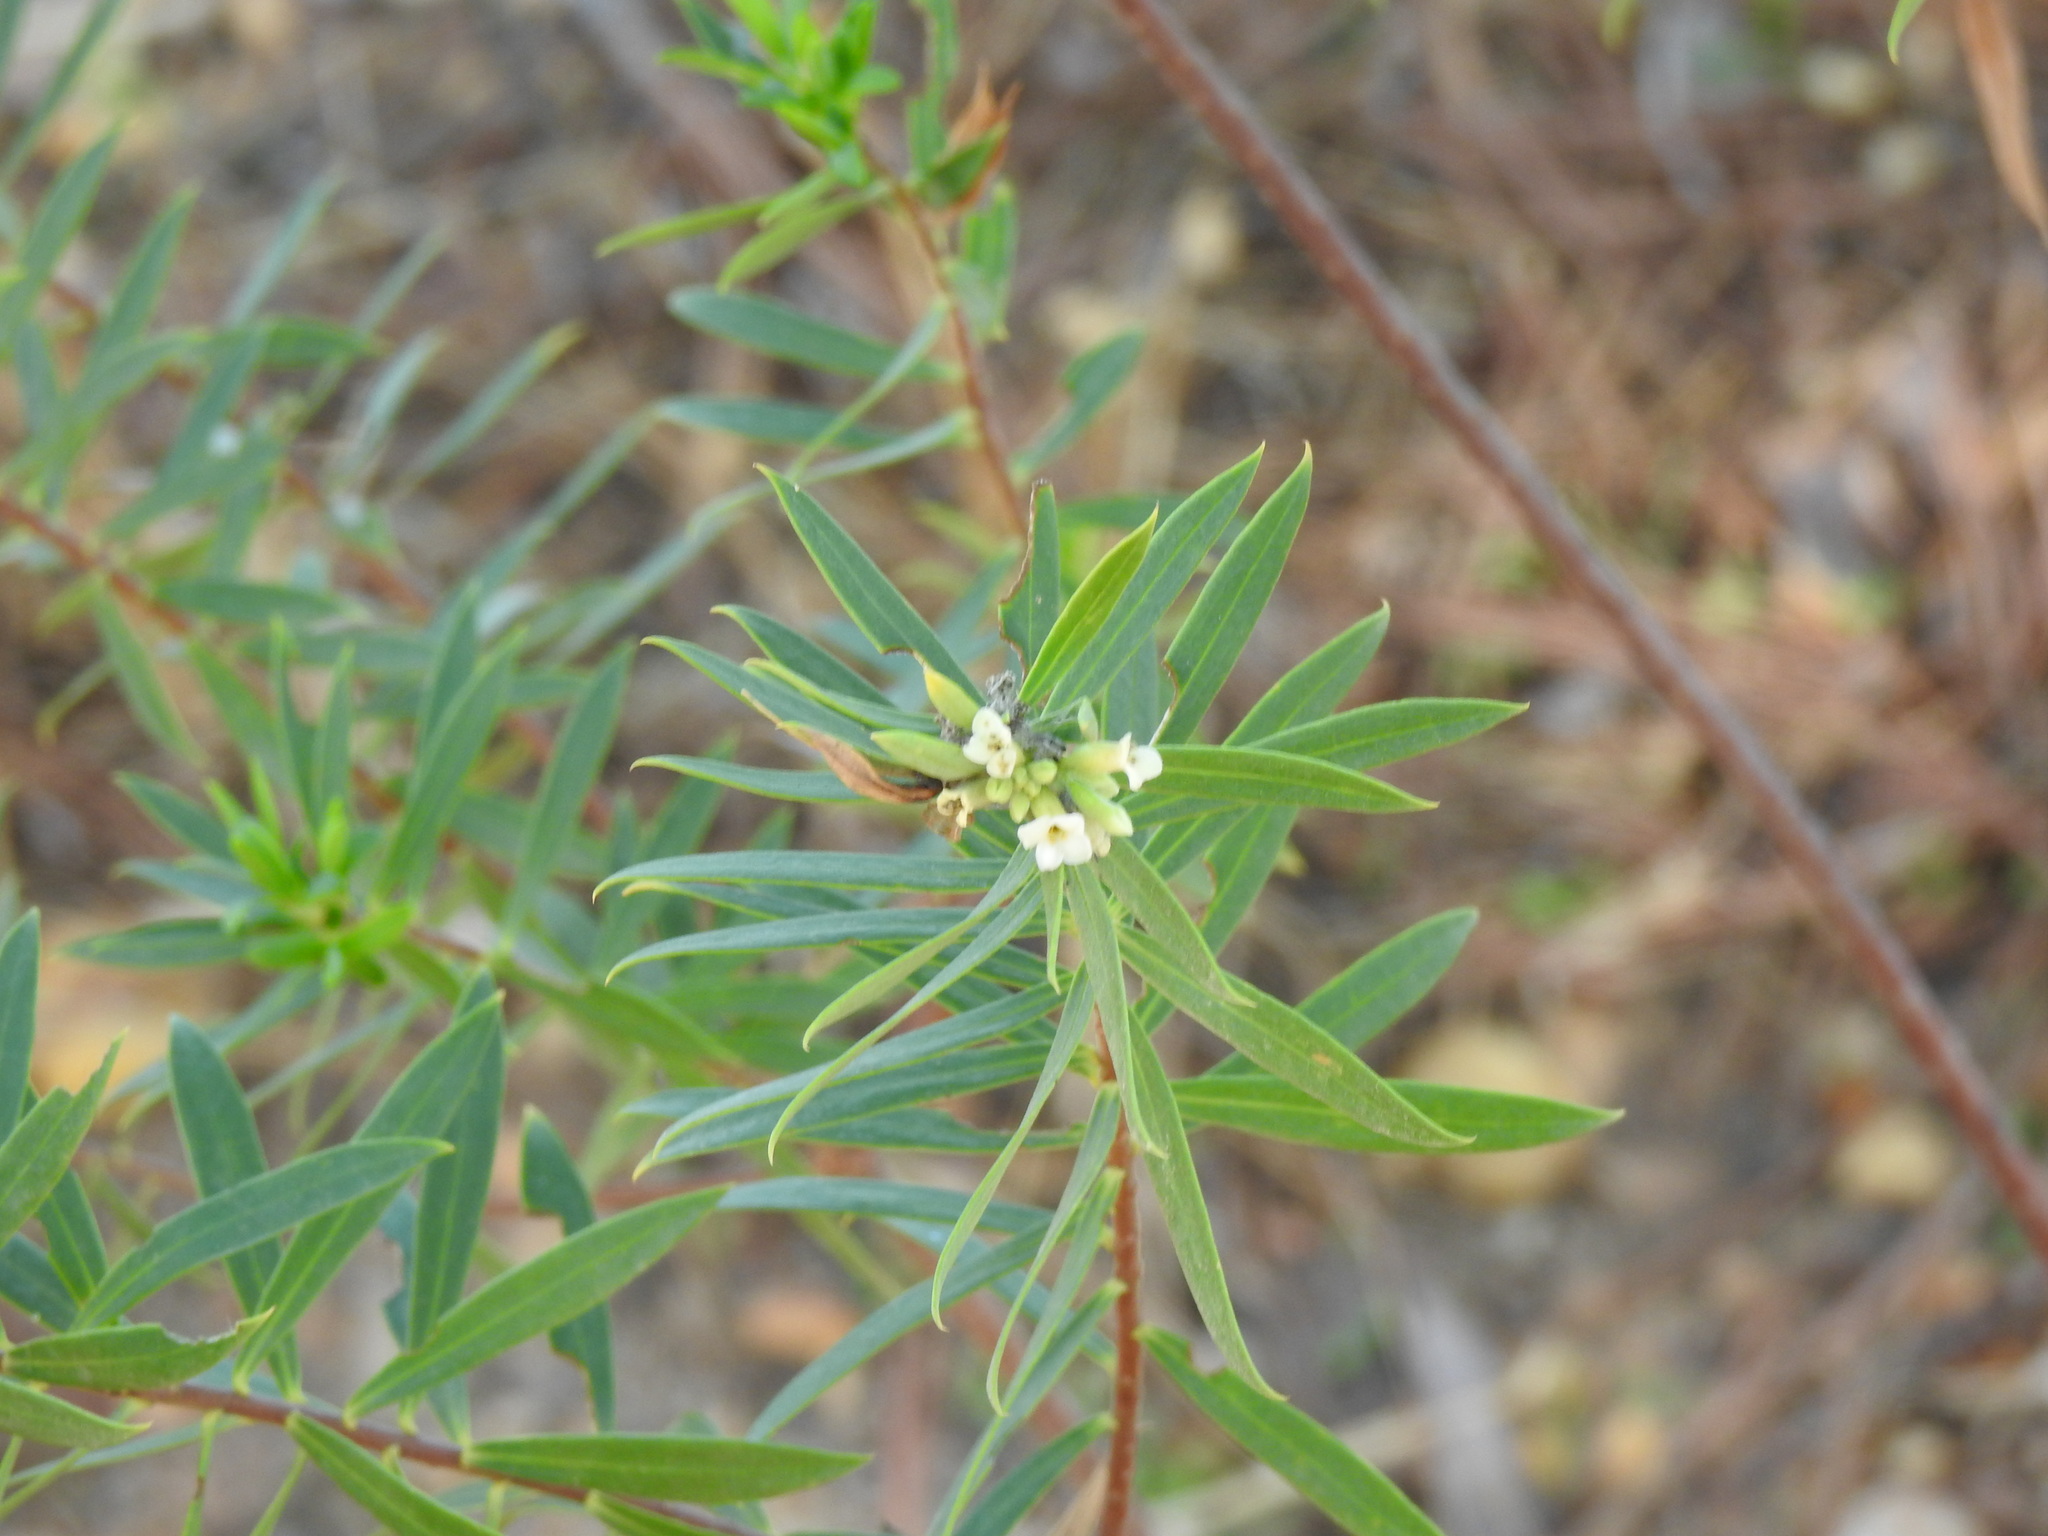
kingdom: Plantae
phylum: Tracheophyta
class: Magnoliopsida
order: Malvales
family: Thymelaeaceae
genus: Daphne
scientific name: Daphne gnidium
